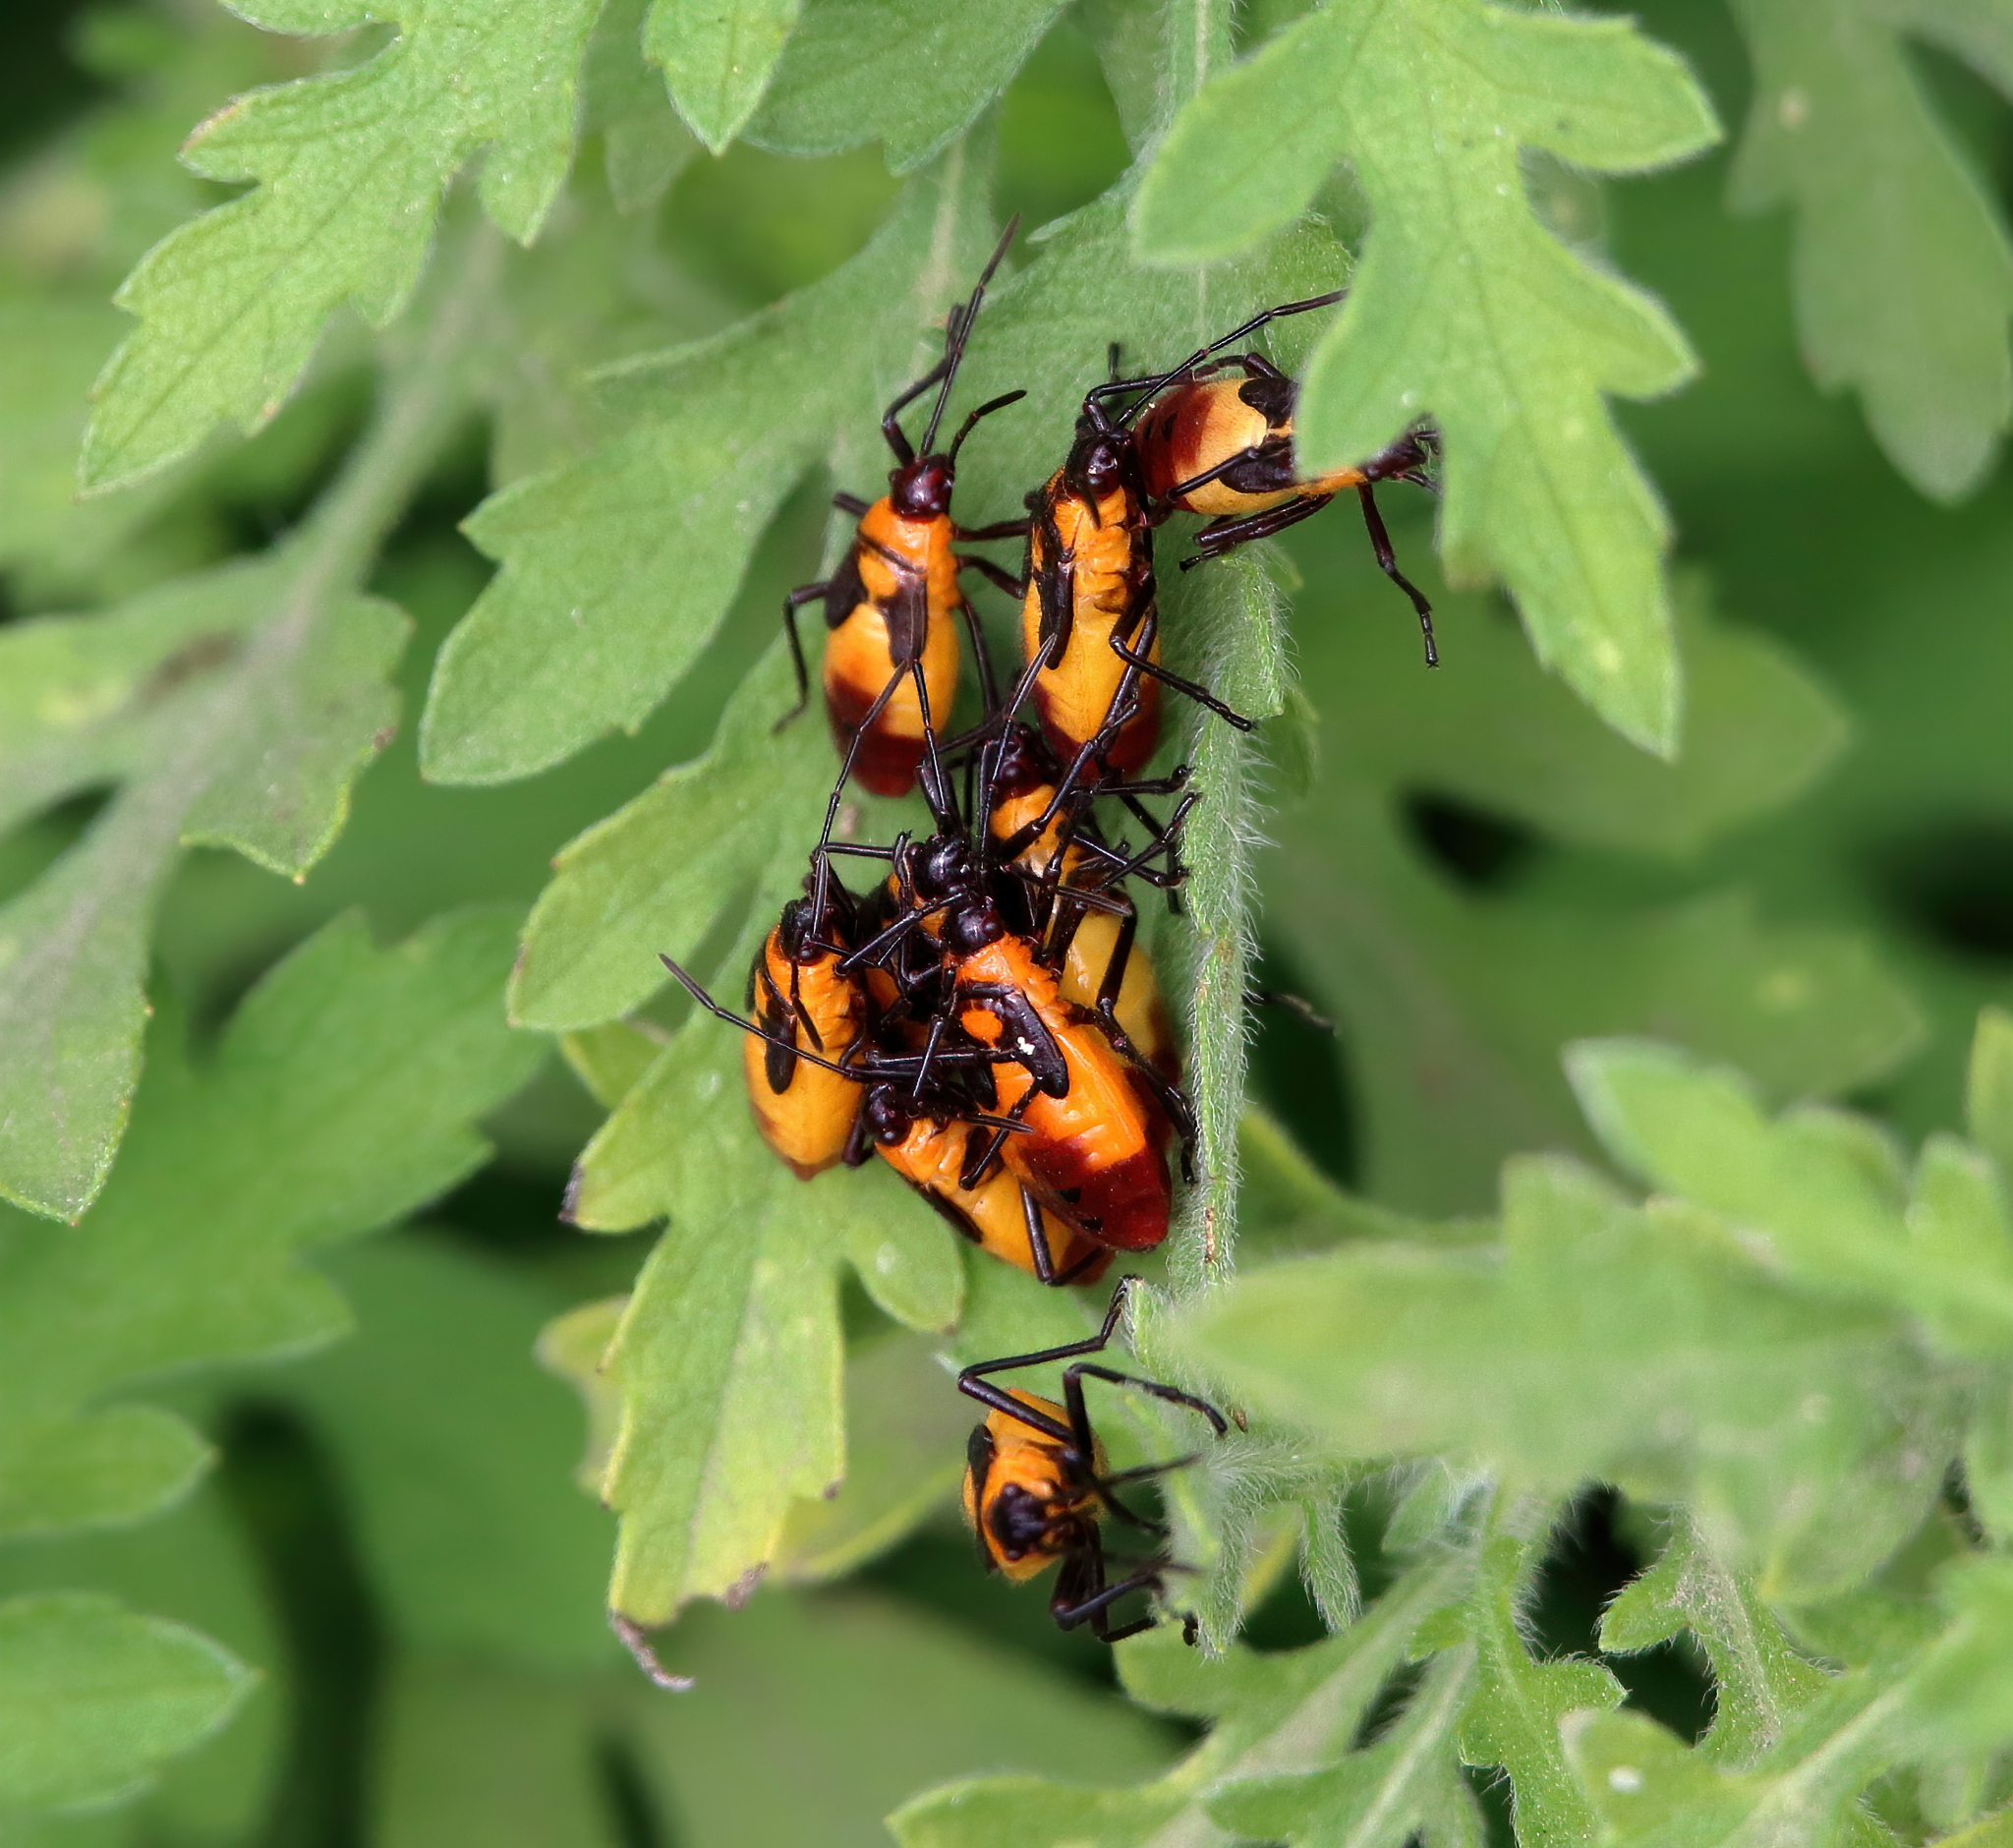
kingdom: Animalia
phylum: Arthropoda
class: Insecta
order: Hemiptera
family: Lygaeidae
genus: Oncopeltus
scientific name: Oncopeltus sexmaculatus
